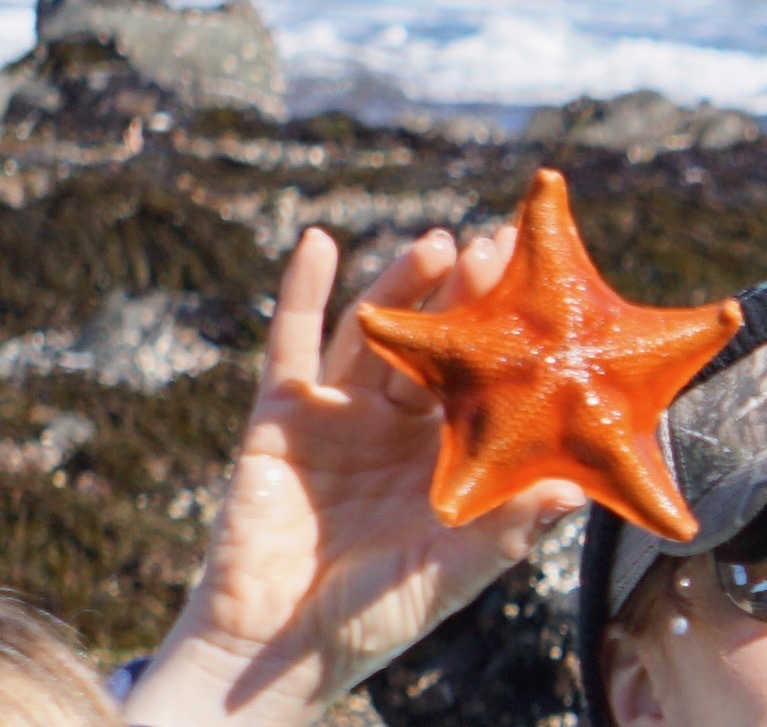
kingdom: Animalia
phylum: Echinodermata
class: Asteroidea
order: Valvatida
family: Asterinidae
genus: Patiria
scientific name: Patiria miniata
